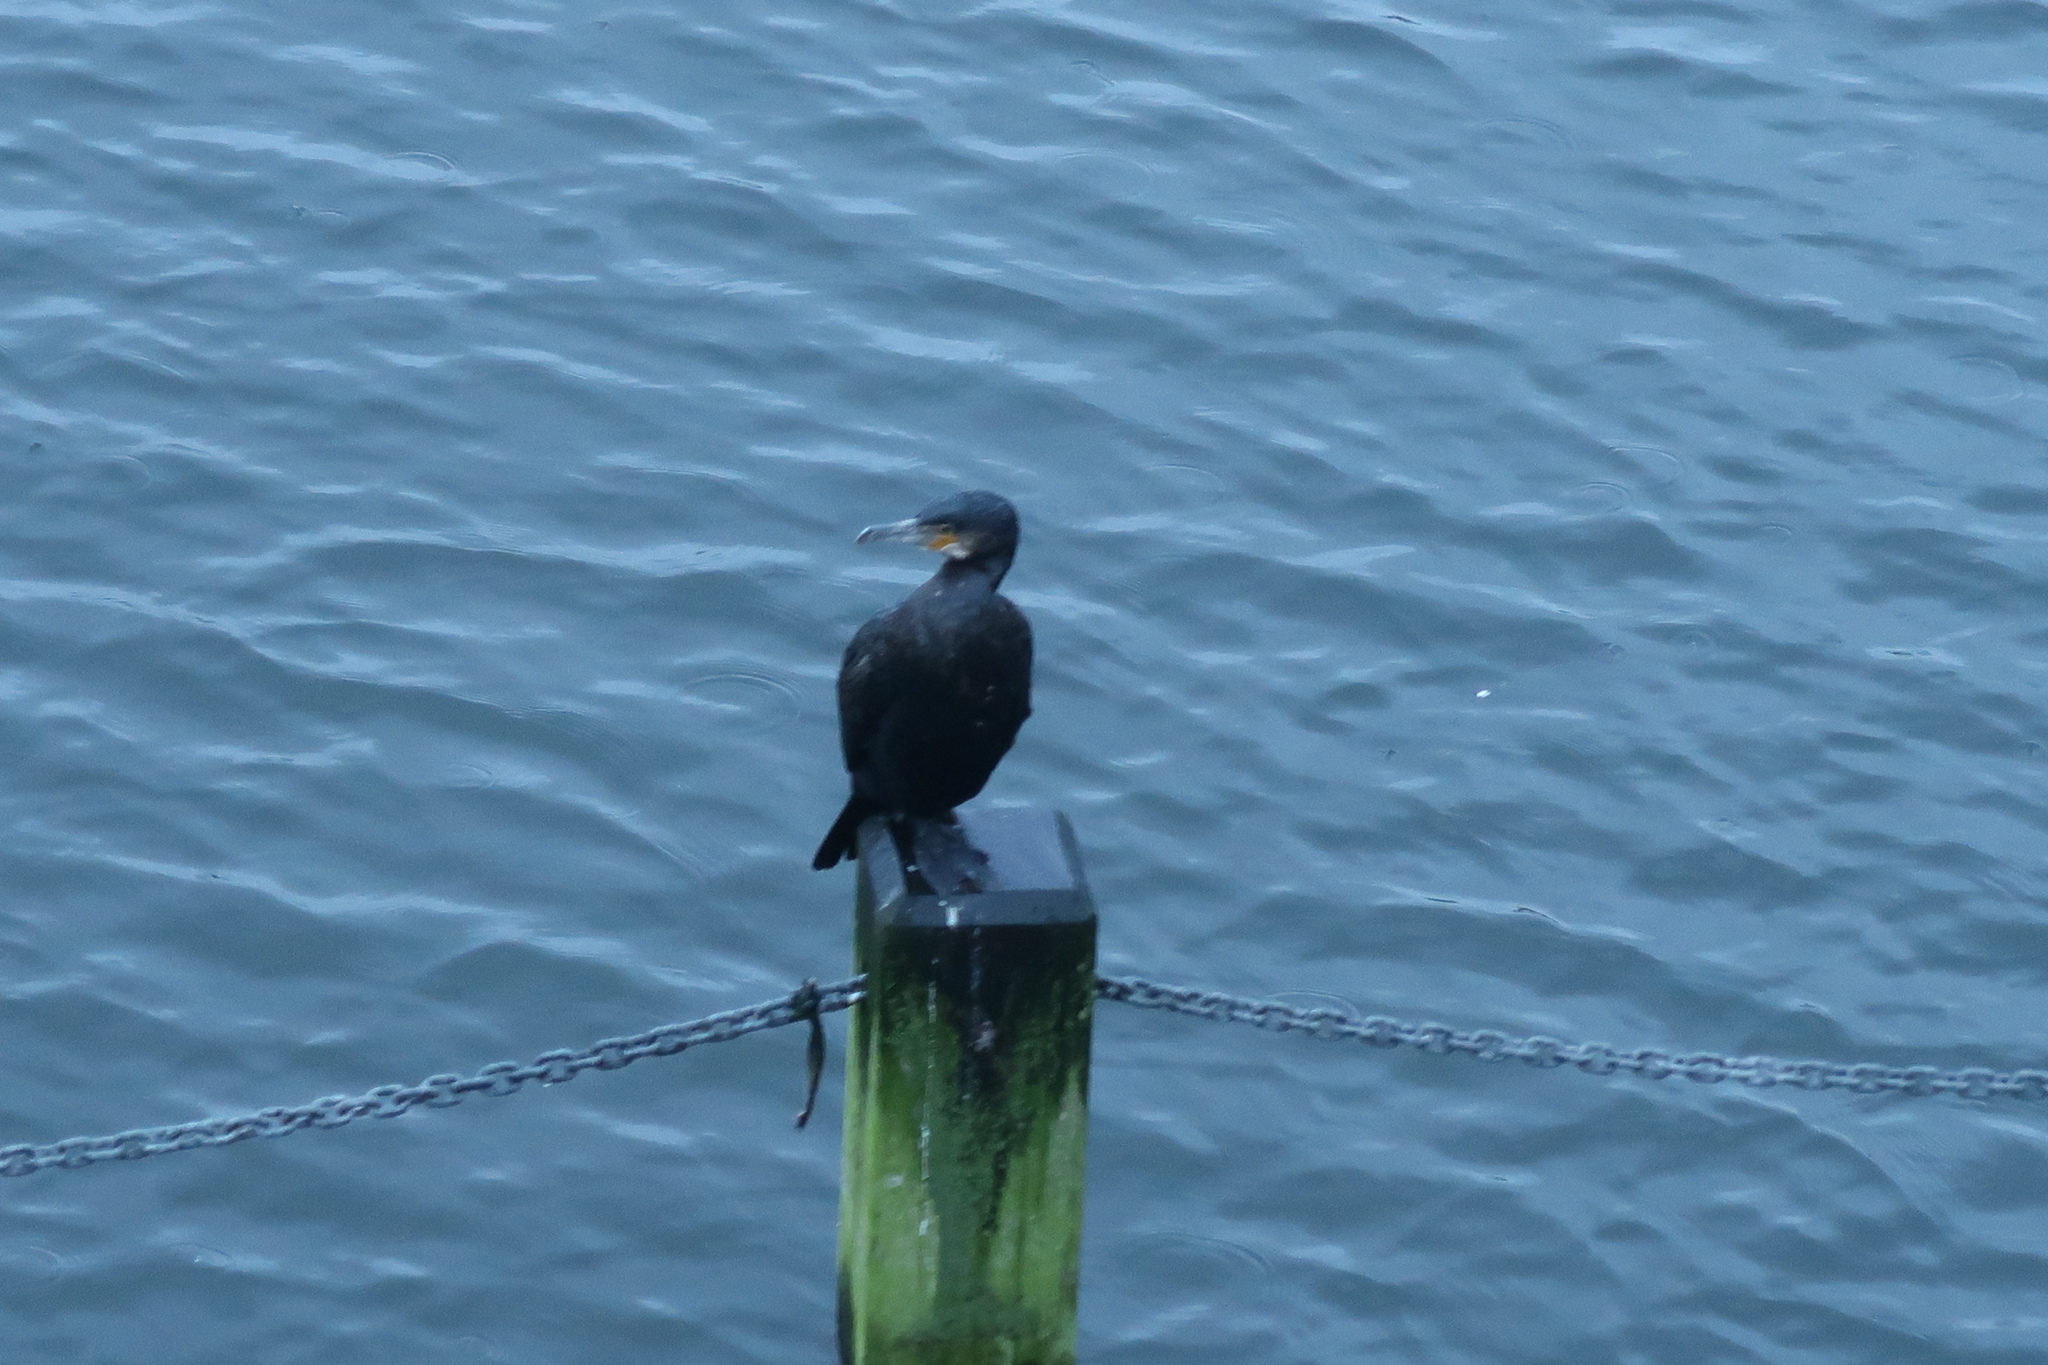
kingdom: Animalia
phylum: Chordata
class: Aves
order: Suliformes
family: Phalacrocoracidae
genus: Phalacrocorax
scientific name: Phalacrocorax carbo
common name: Great cormorant
